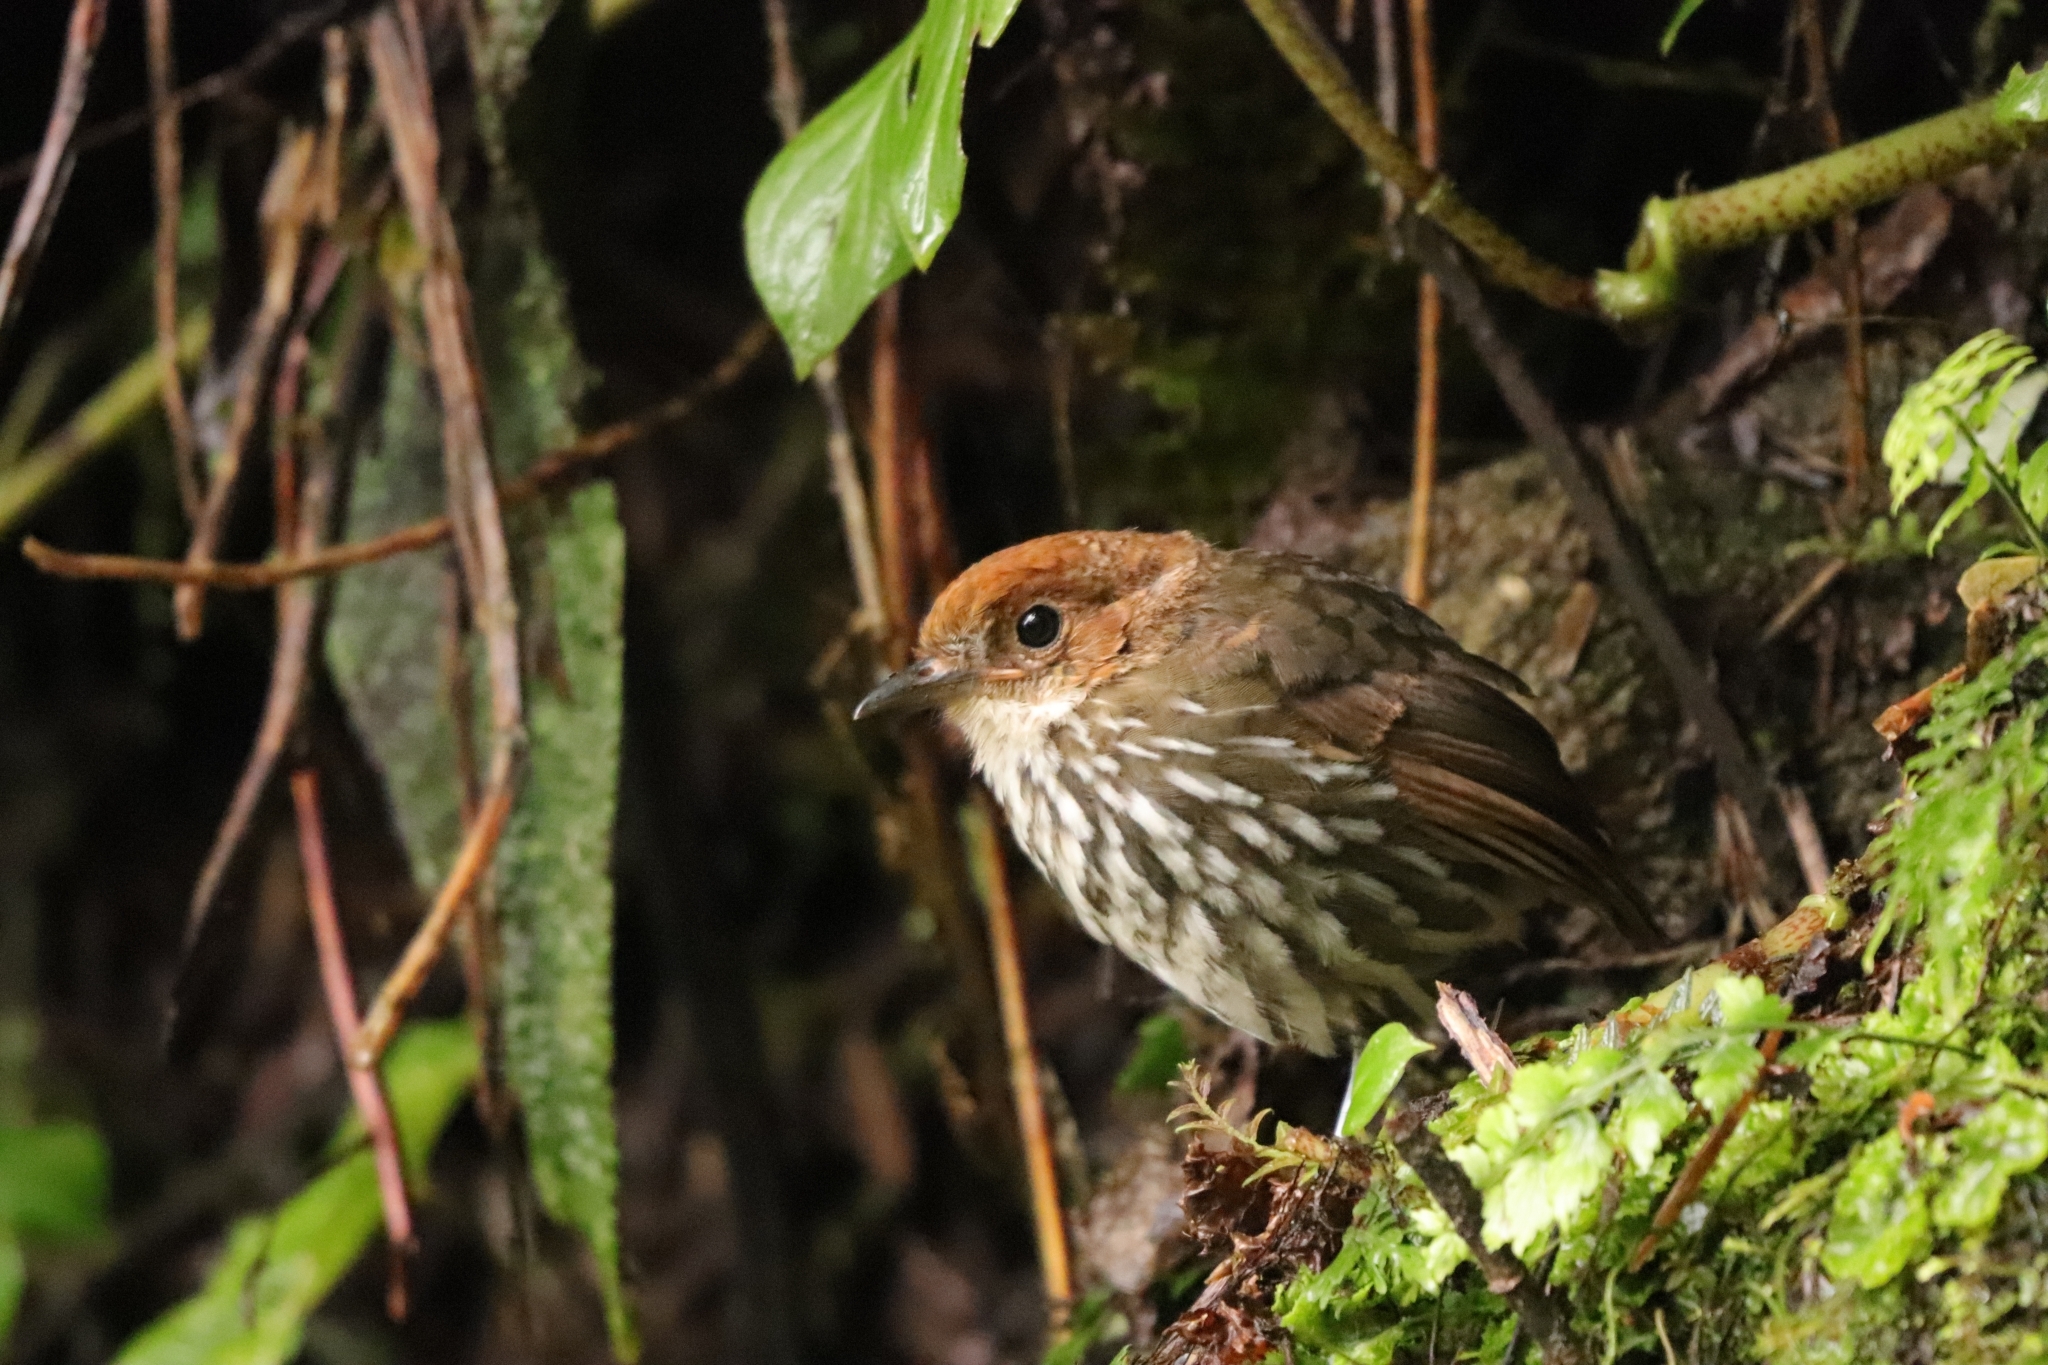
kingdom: Animalia
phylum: Chordata
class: Aves
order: Passeriformes
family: Grallariidae
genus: Grallaria
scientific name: Grallaria ruficapilla
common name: Chestnut-crowned antpitta
